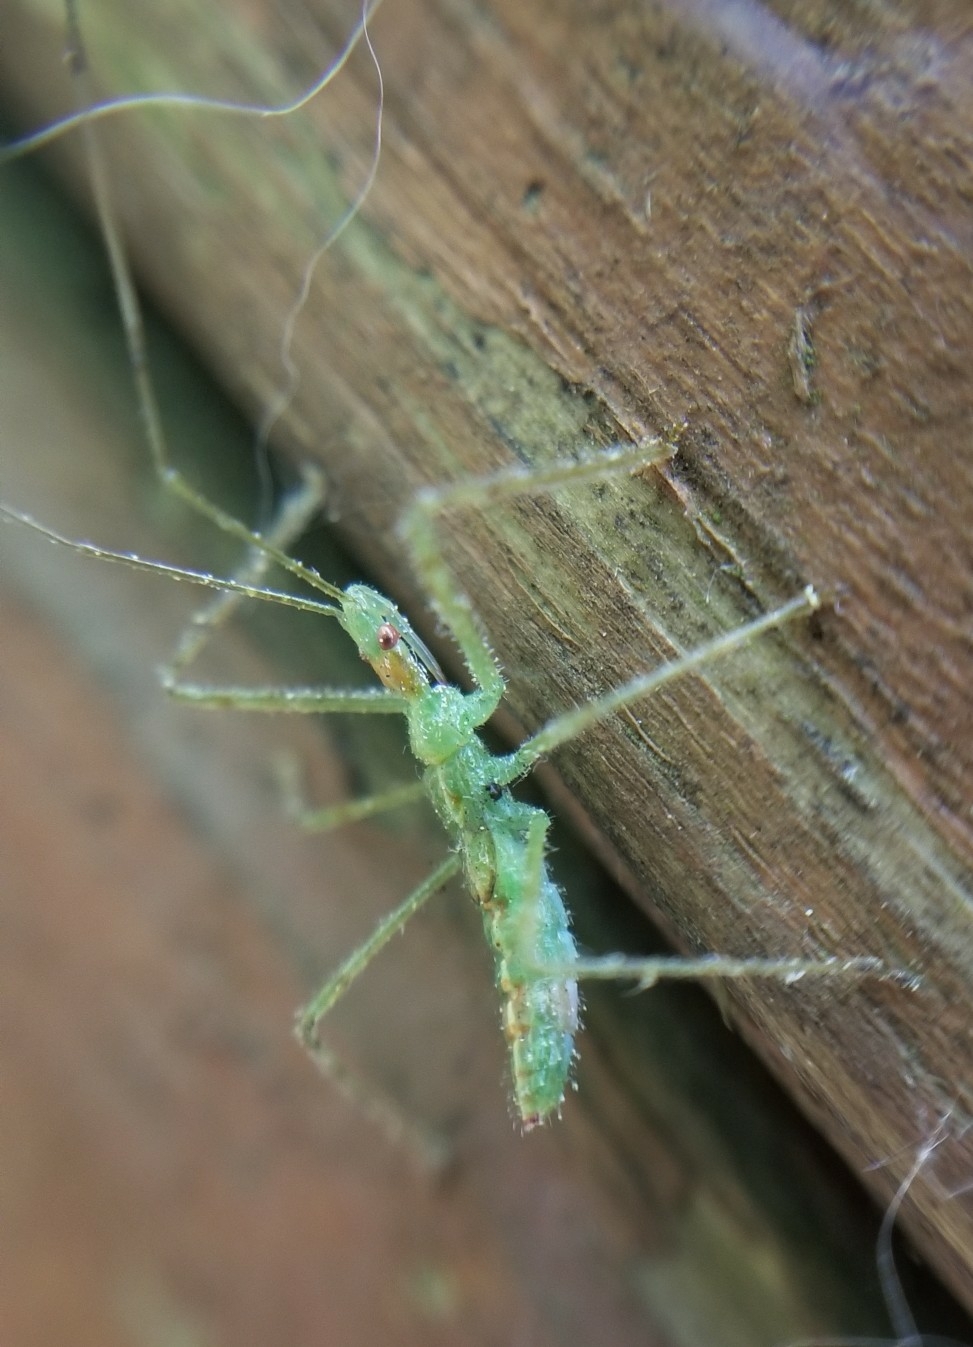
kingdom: Animalia
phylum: Arthropoda
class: Insecta
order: Hemiptera
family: Reduviidae
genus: Zelus
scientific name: Zelus luridus
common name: Pale green assassin bug
